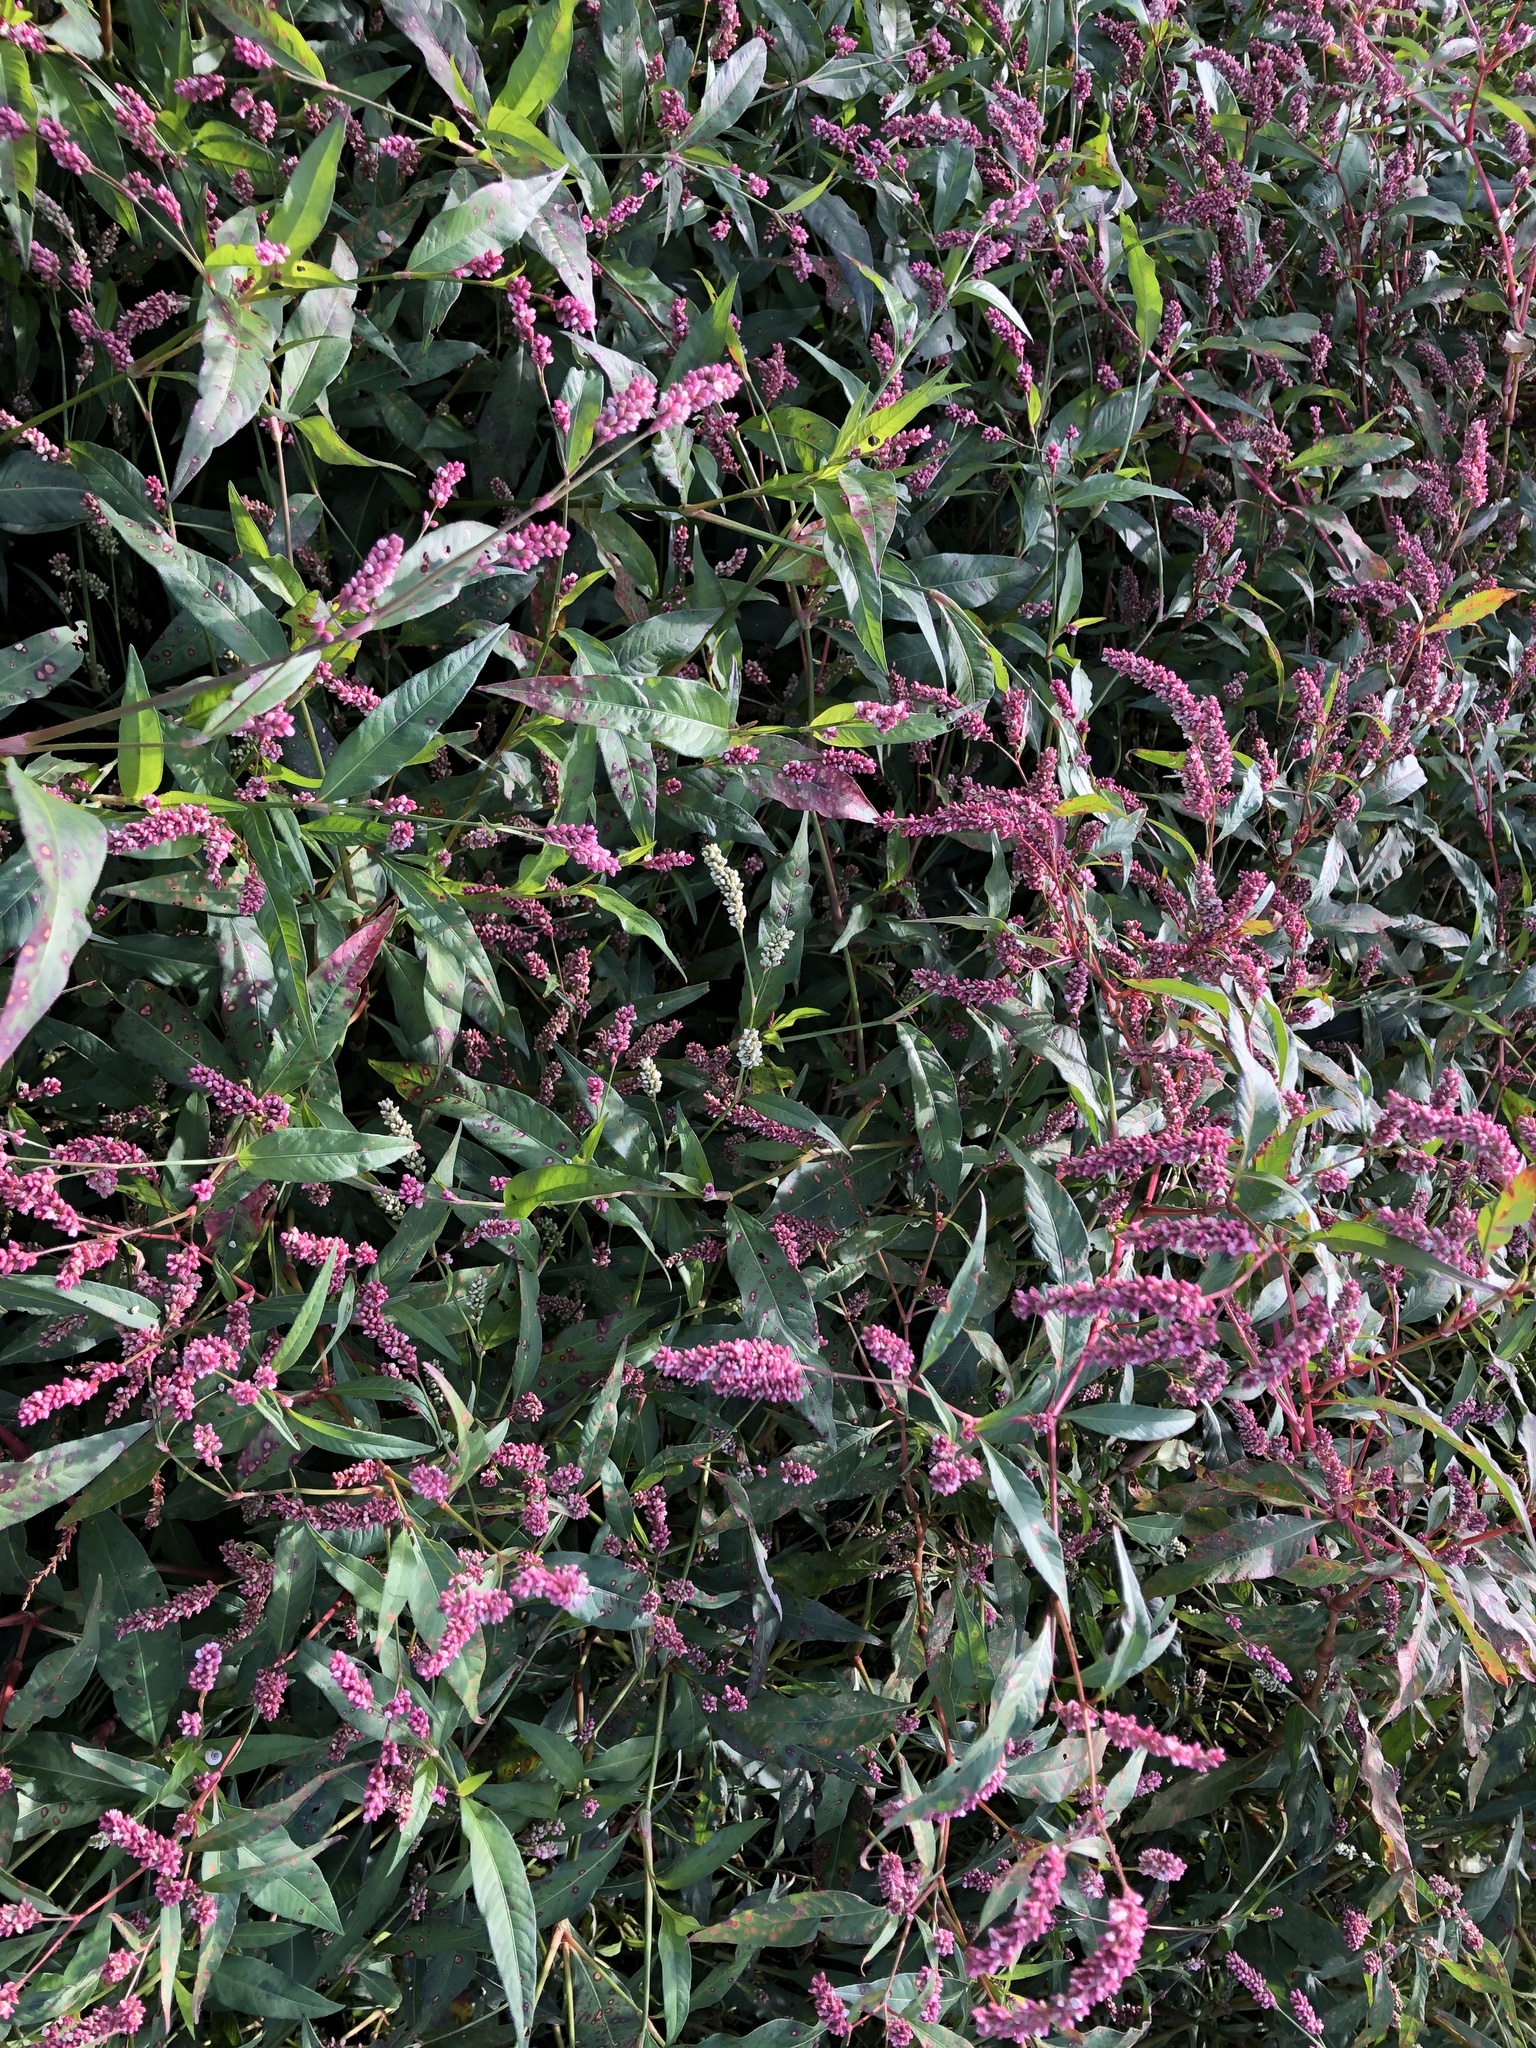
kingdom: Plantae
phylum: Tracheophyta
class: Magnoliopsida
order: Caryophyllales
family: Polygonaceae
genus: Persicaria
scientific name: Persicaria maculosa
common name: Redshank
